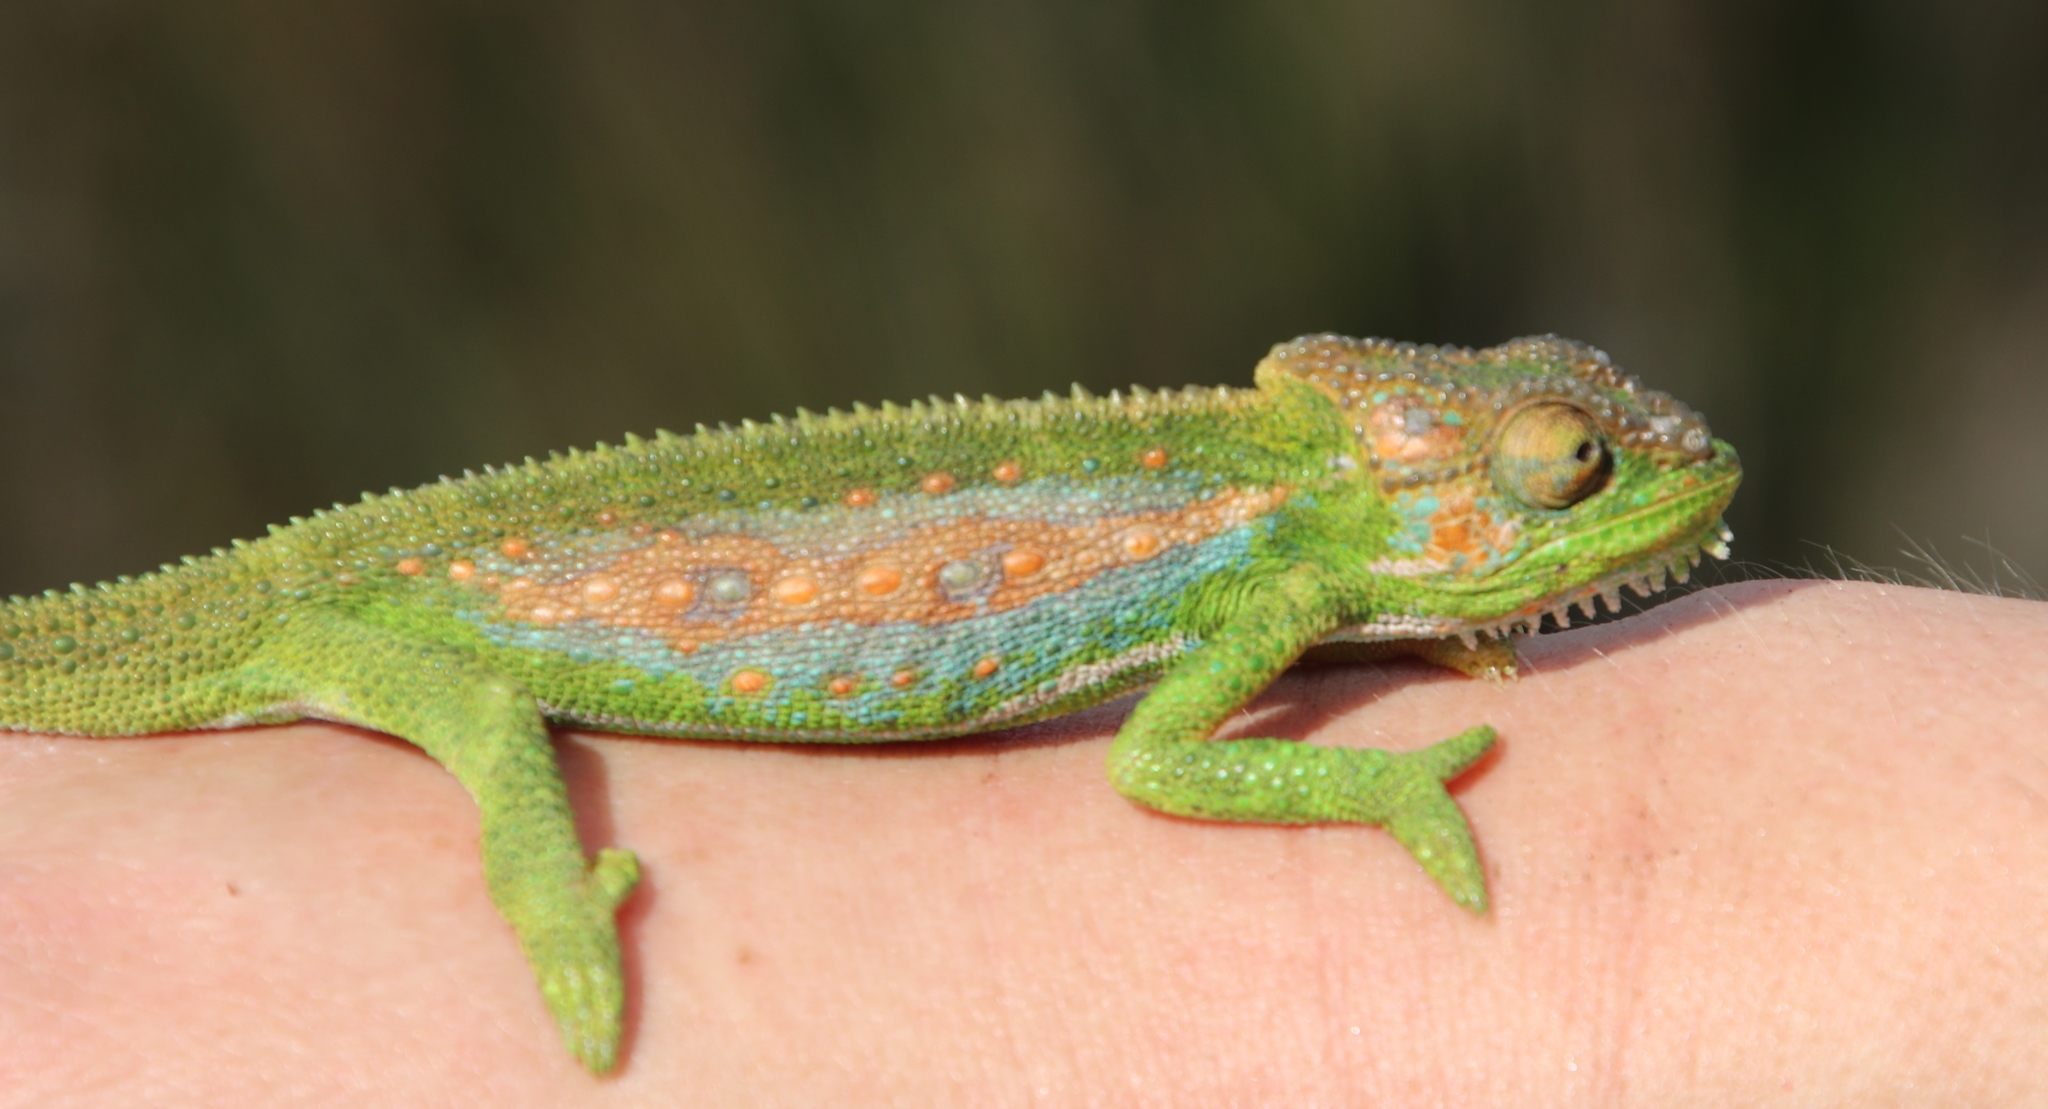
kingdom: Animalia
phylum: Chordata
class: Squamata
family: Chamaeleonidae
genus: Bradypodion
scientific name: Bradypodion pumilum
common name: Cape dwarf chameleon
